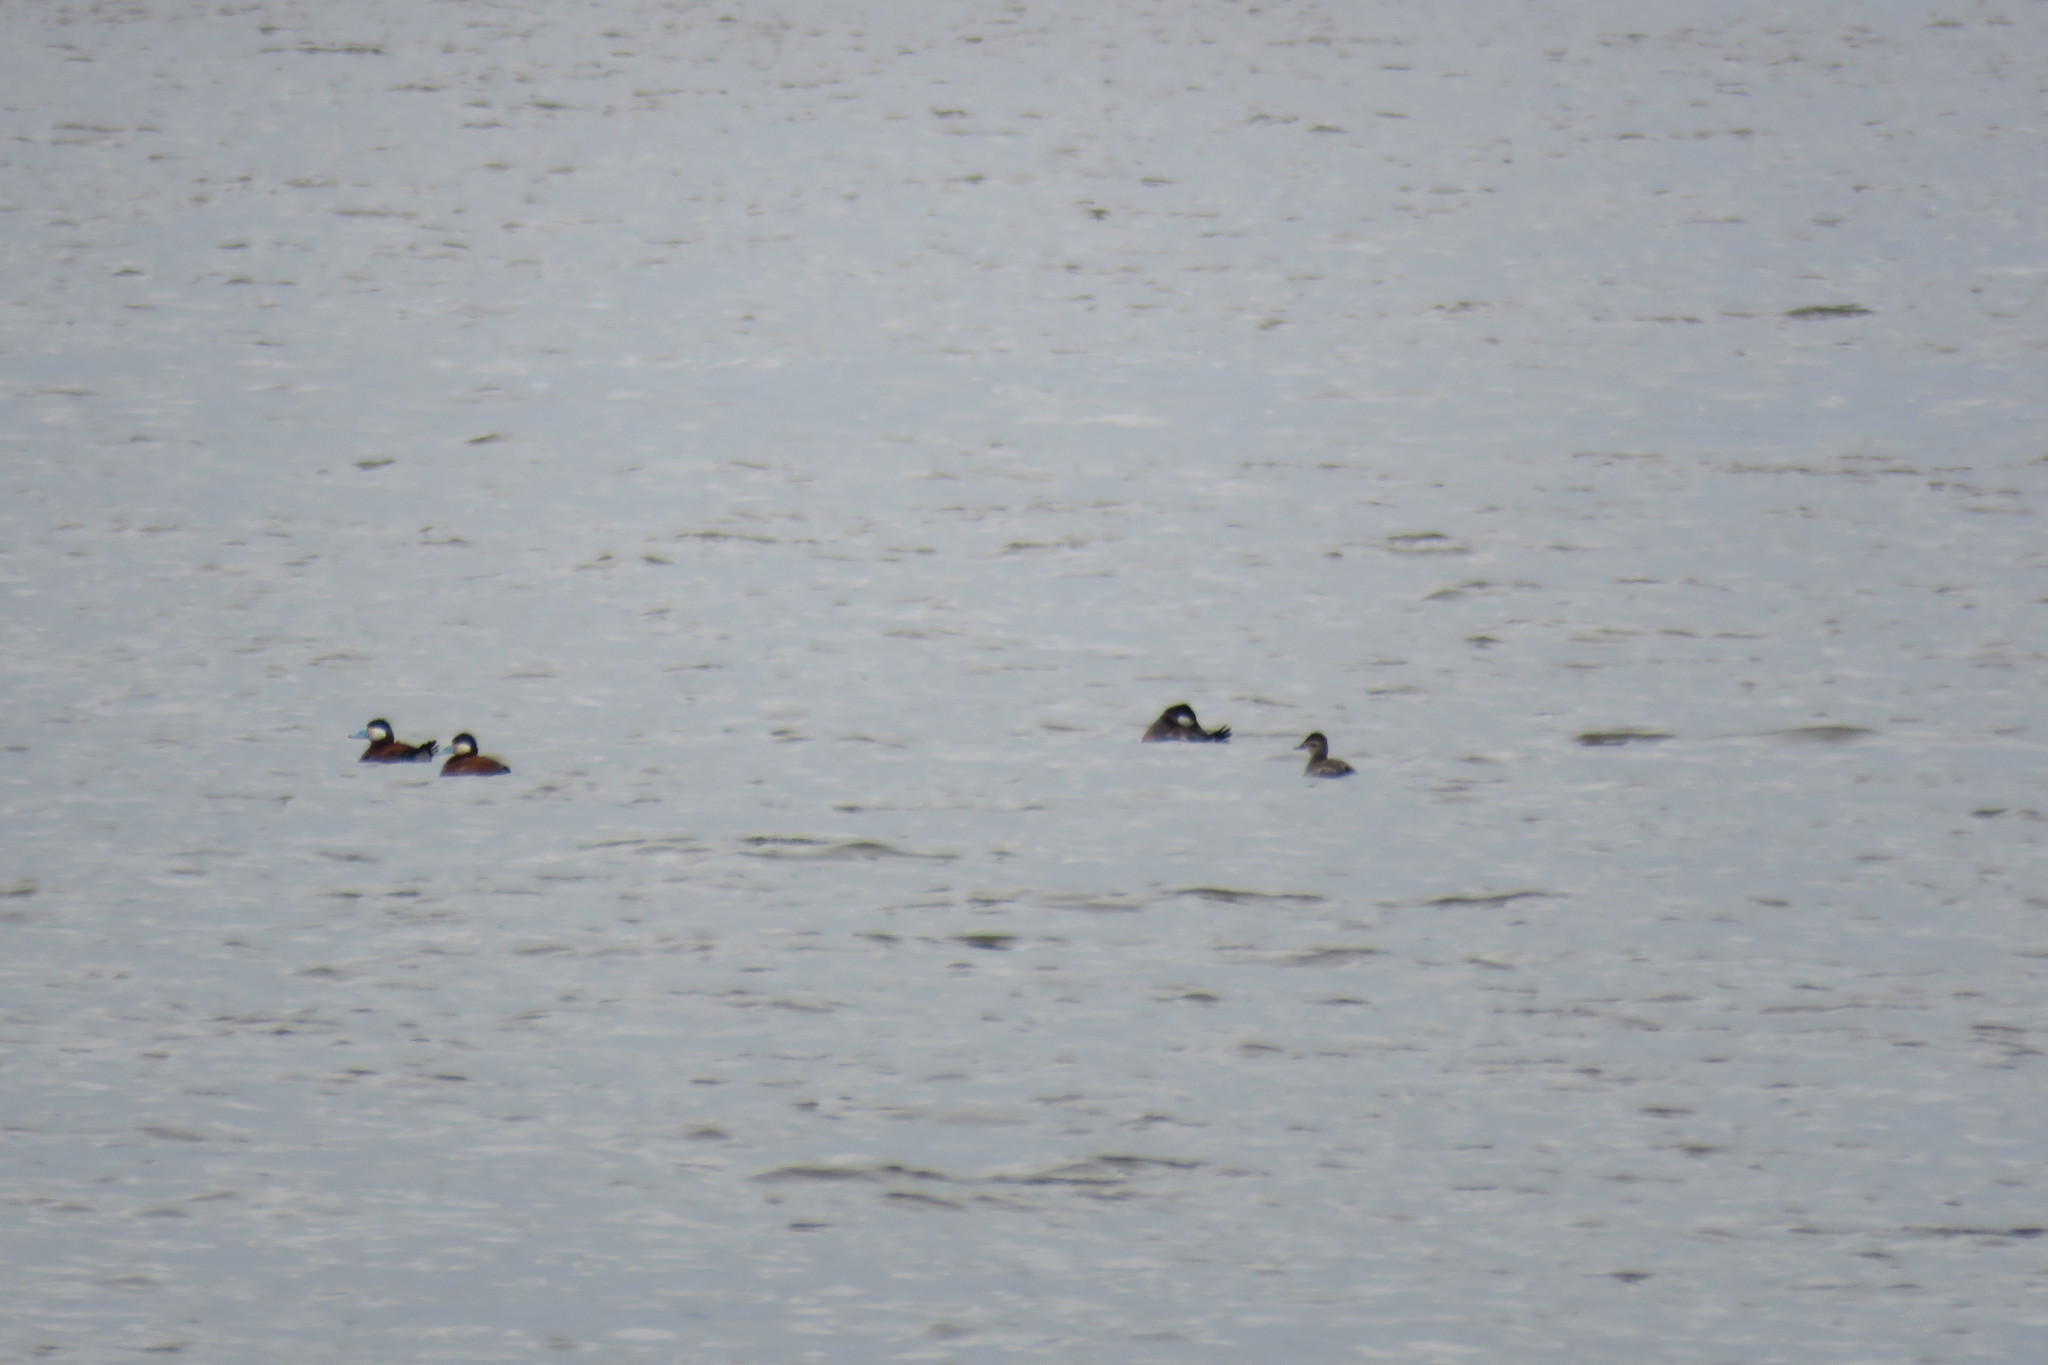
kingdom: Animalia
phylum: Chordata
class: Aves
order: Anseriformes
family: Anatidae
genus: Oxyura
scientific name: Oxyura jamaicensis
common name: Ruddy duck
